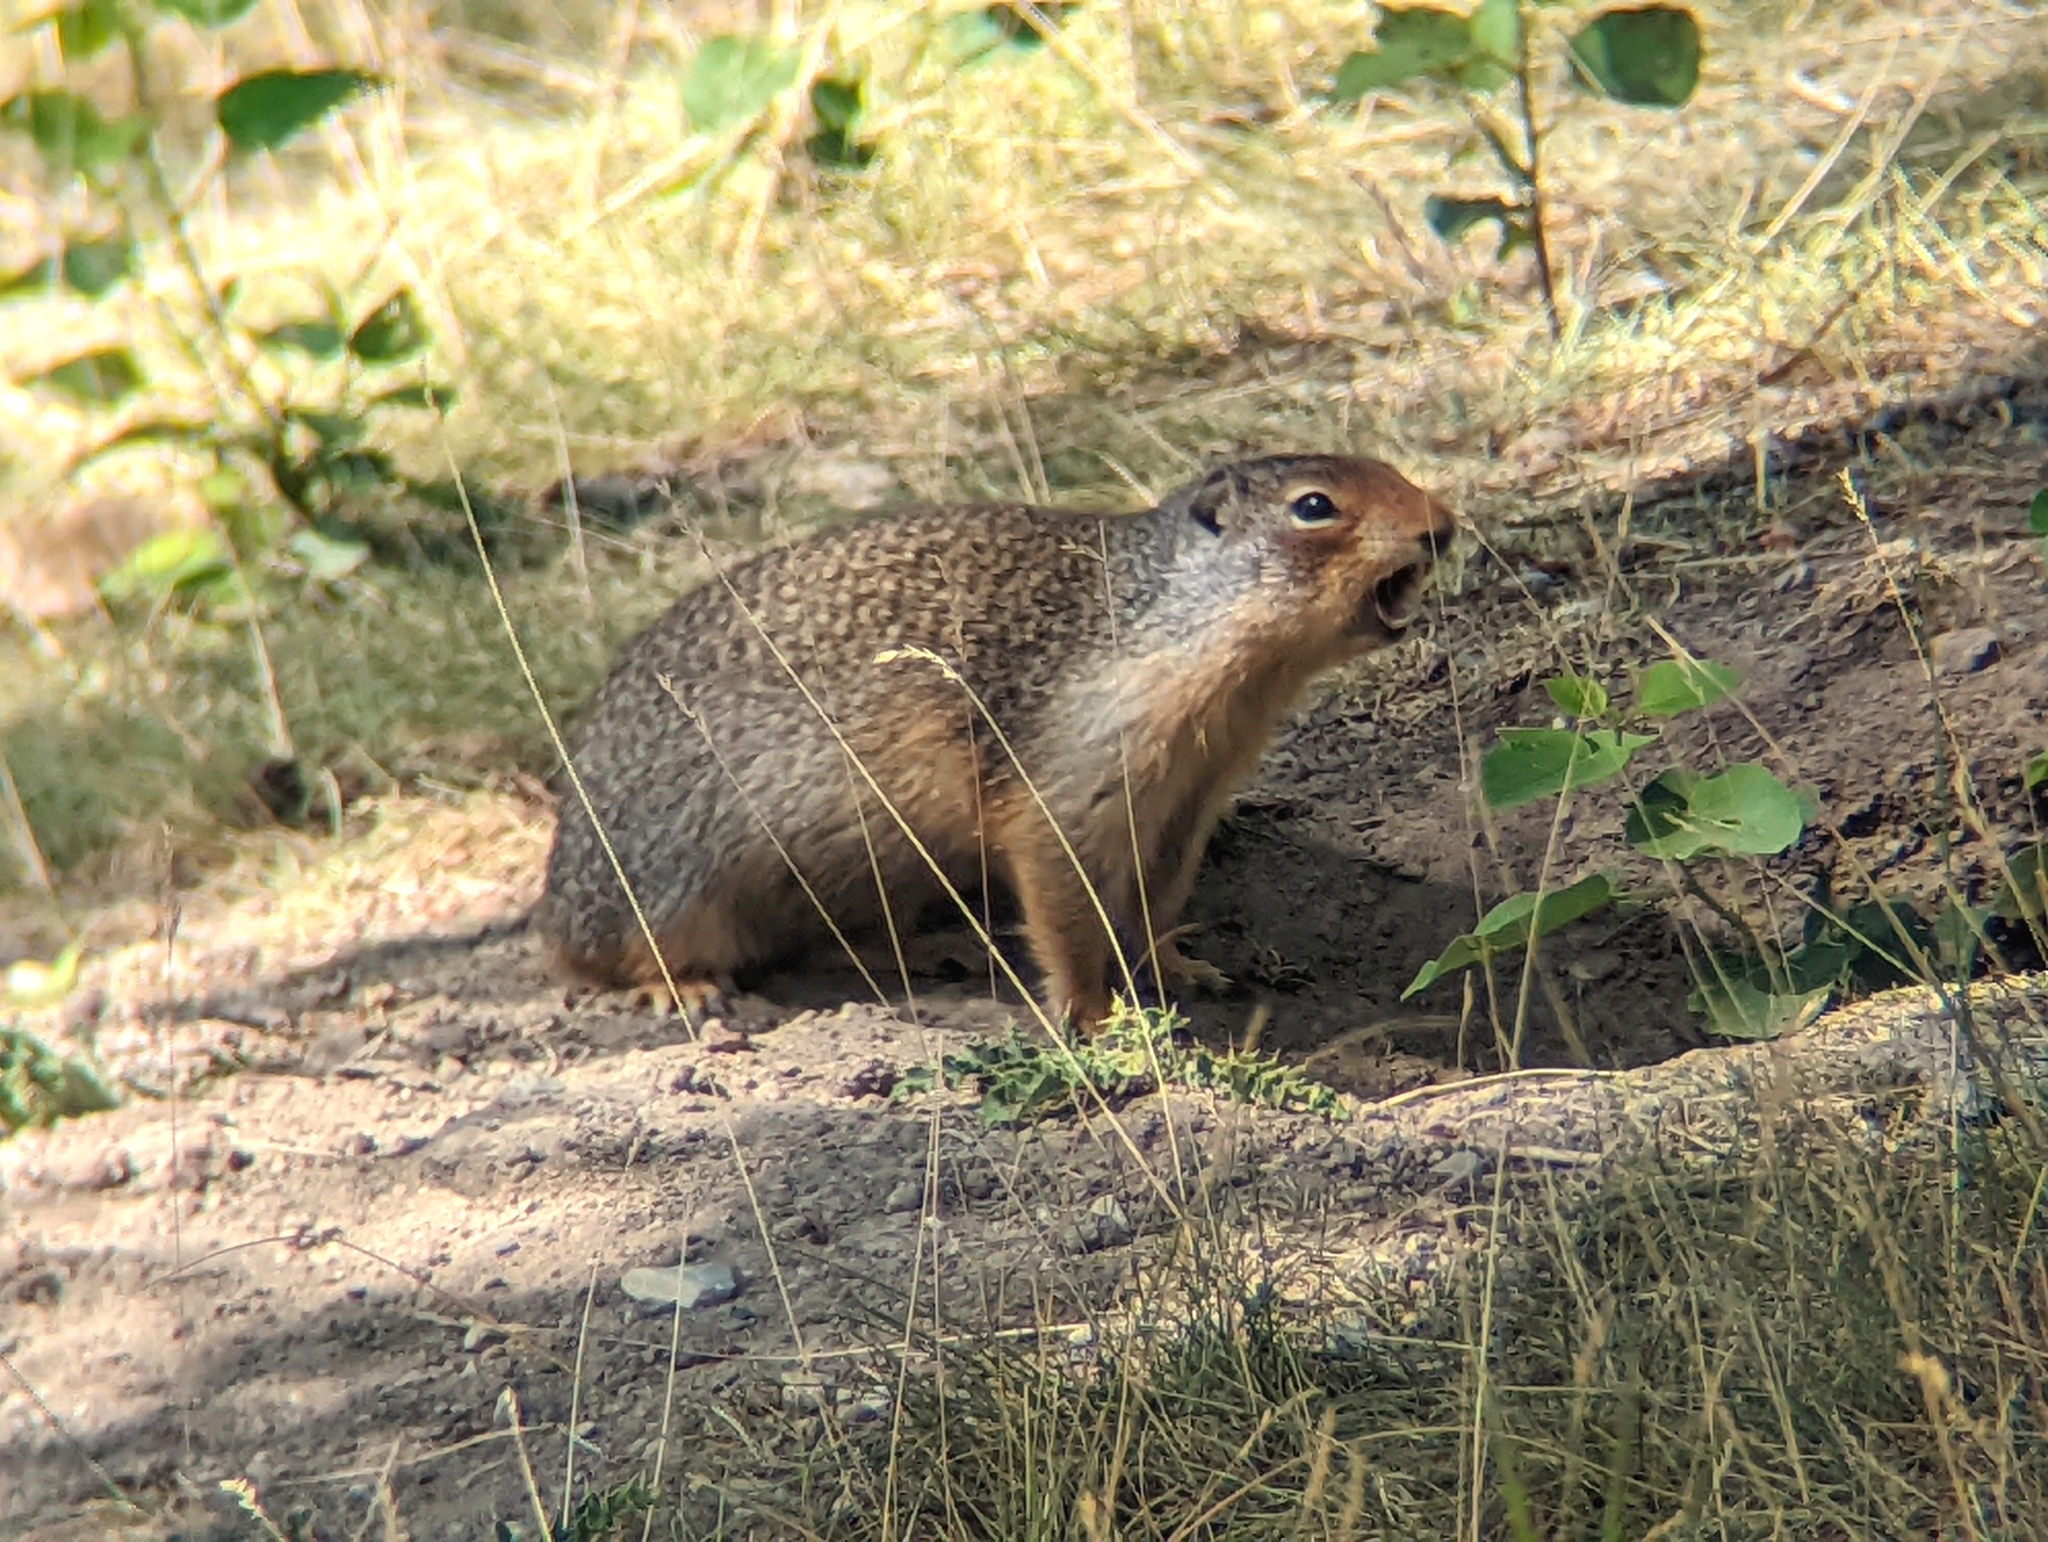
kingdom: Animalia
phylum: Chordata
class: Mammalia
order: Rodentia
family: Sciuridae
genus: Urocitellus
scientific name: Urocitellus columbianus
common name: Columbian ground squirrel
